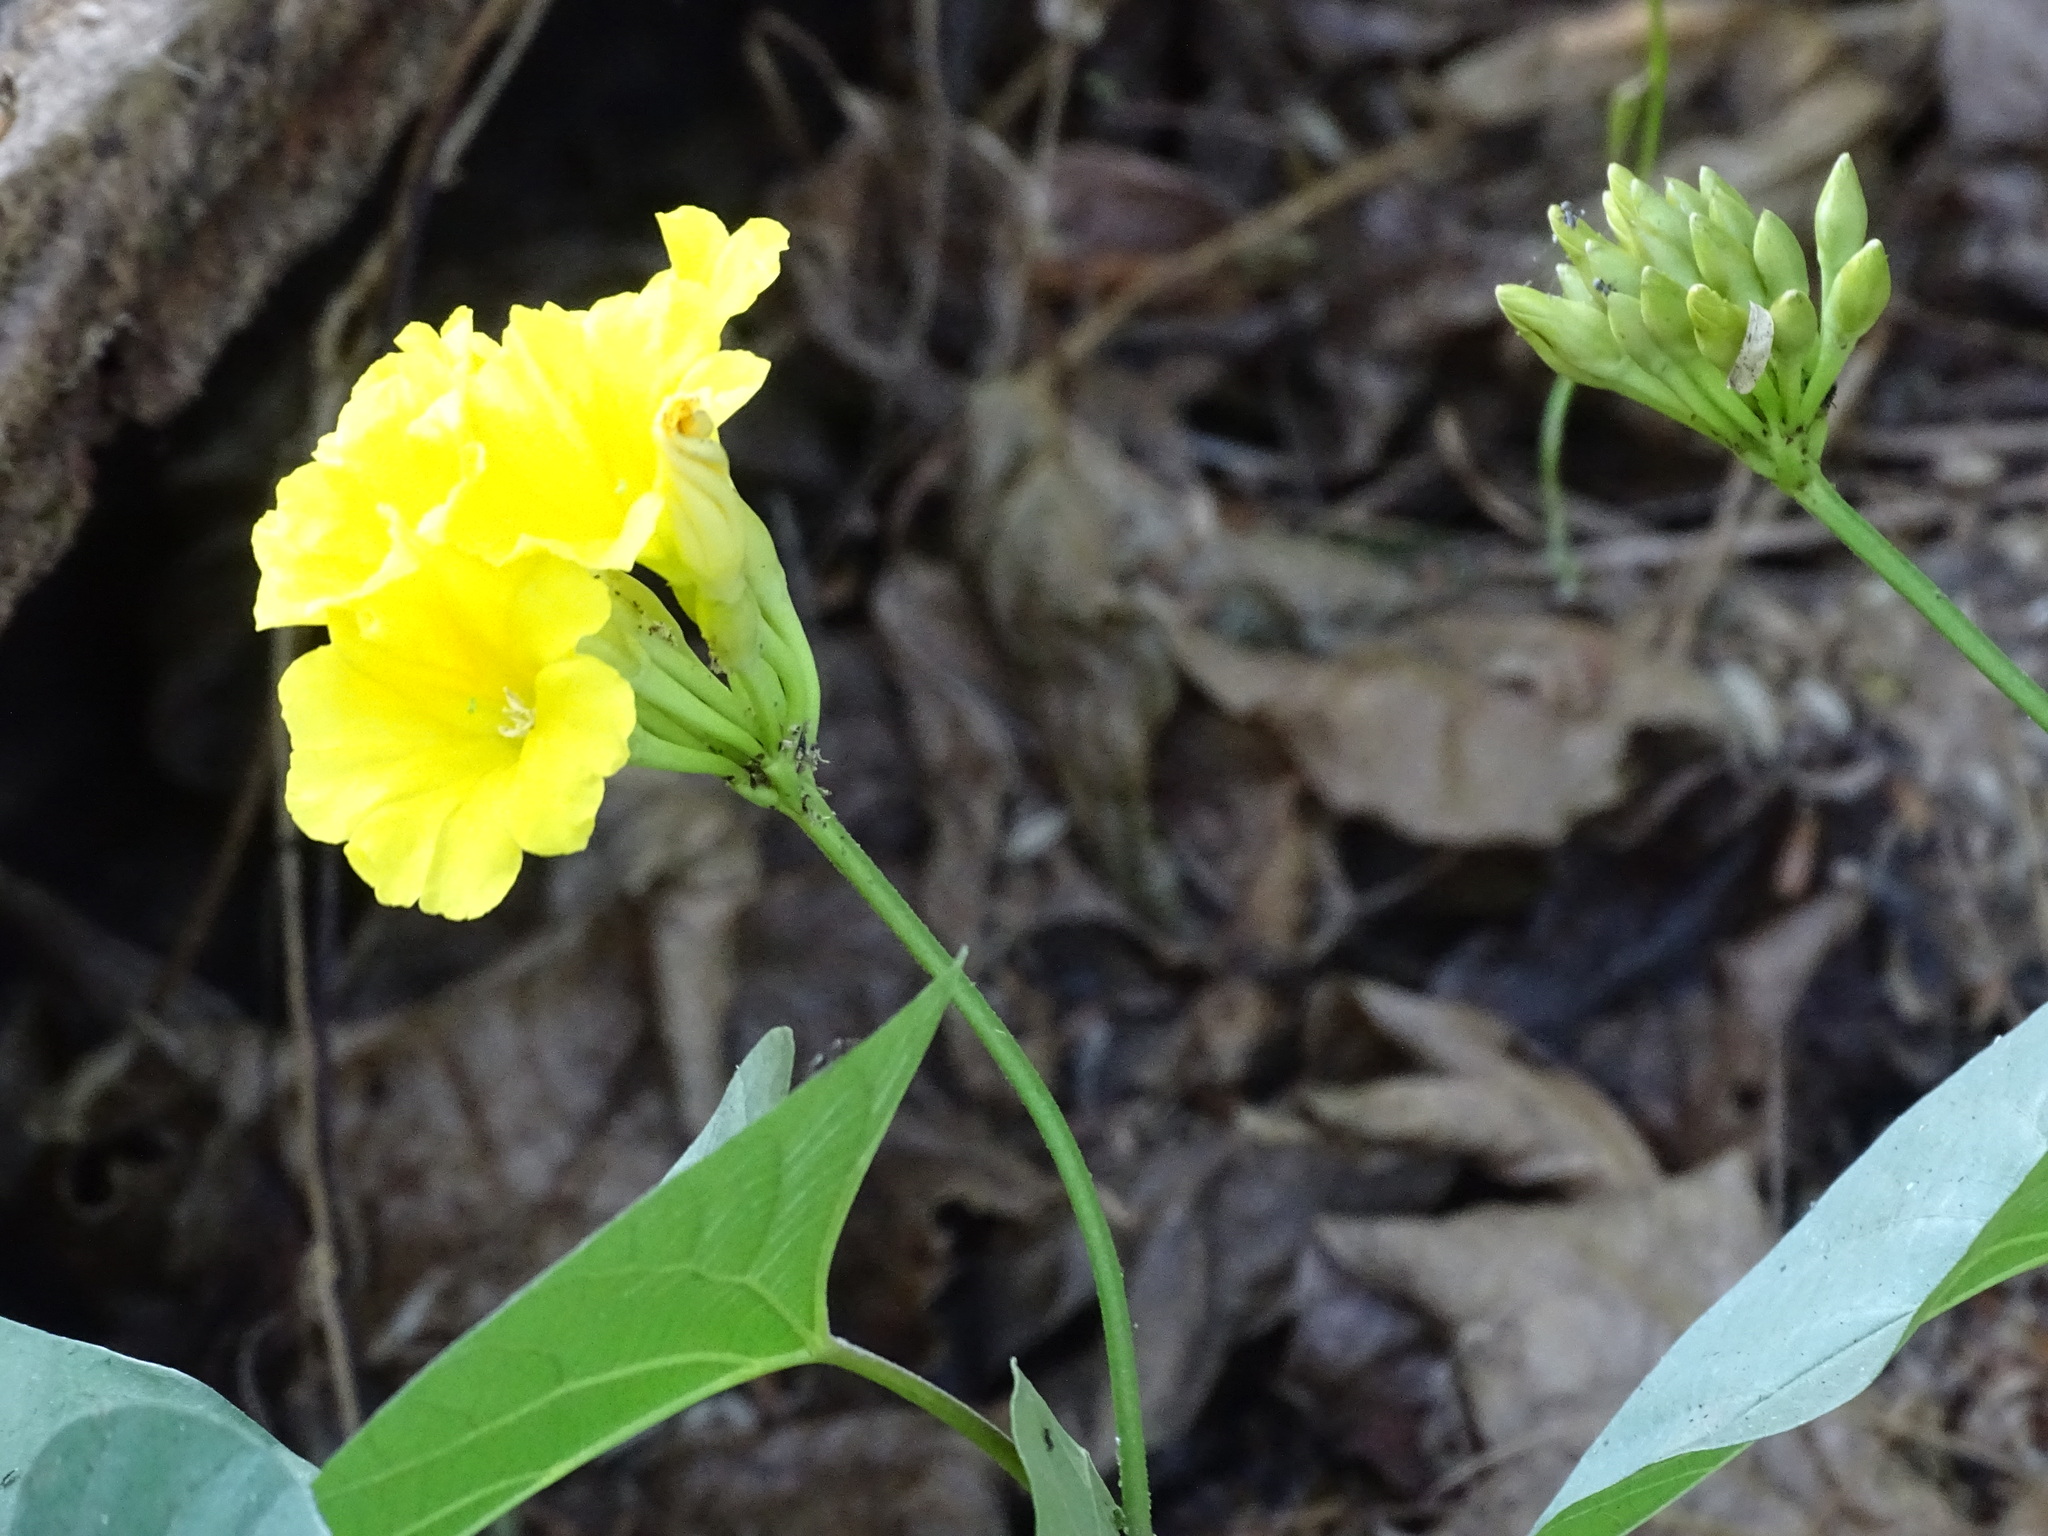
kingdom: Plantae
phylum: Tracheophyta
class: Magnoliopsida
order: Solanales
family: Convolvulaceae
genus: Camonea
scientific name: Camonea umbellata
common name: Hogvine
